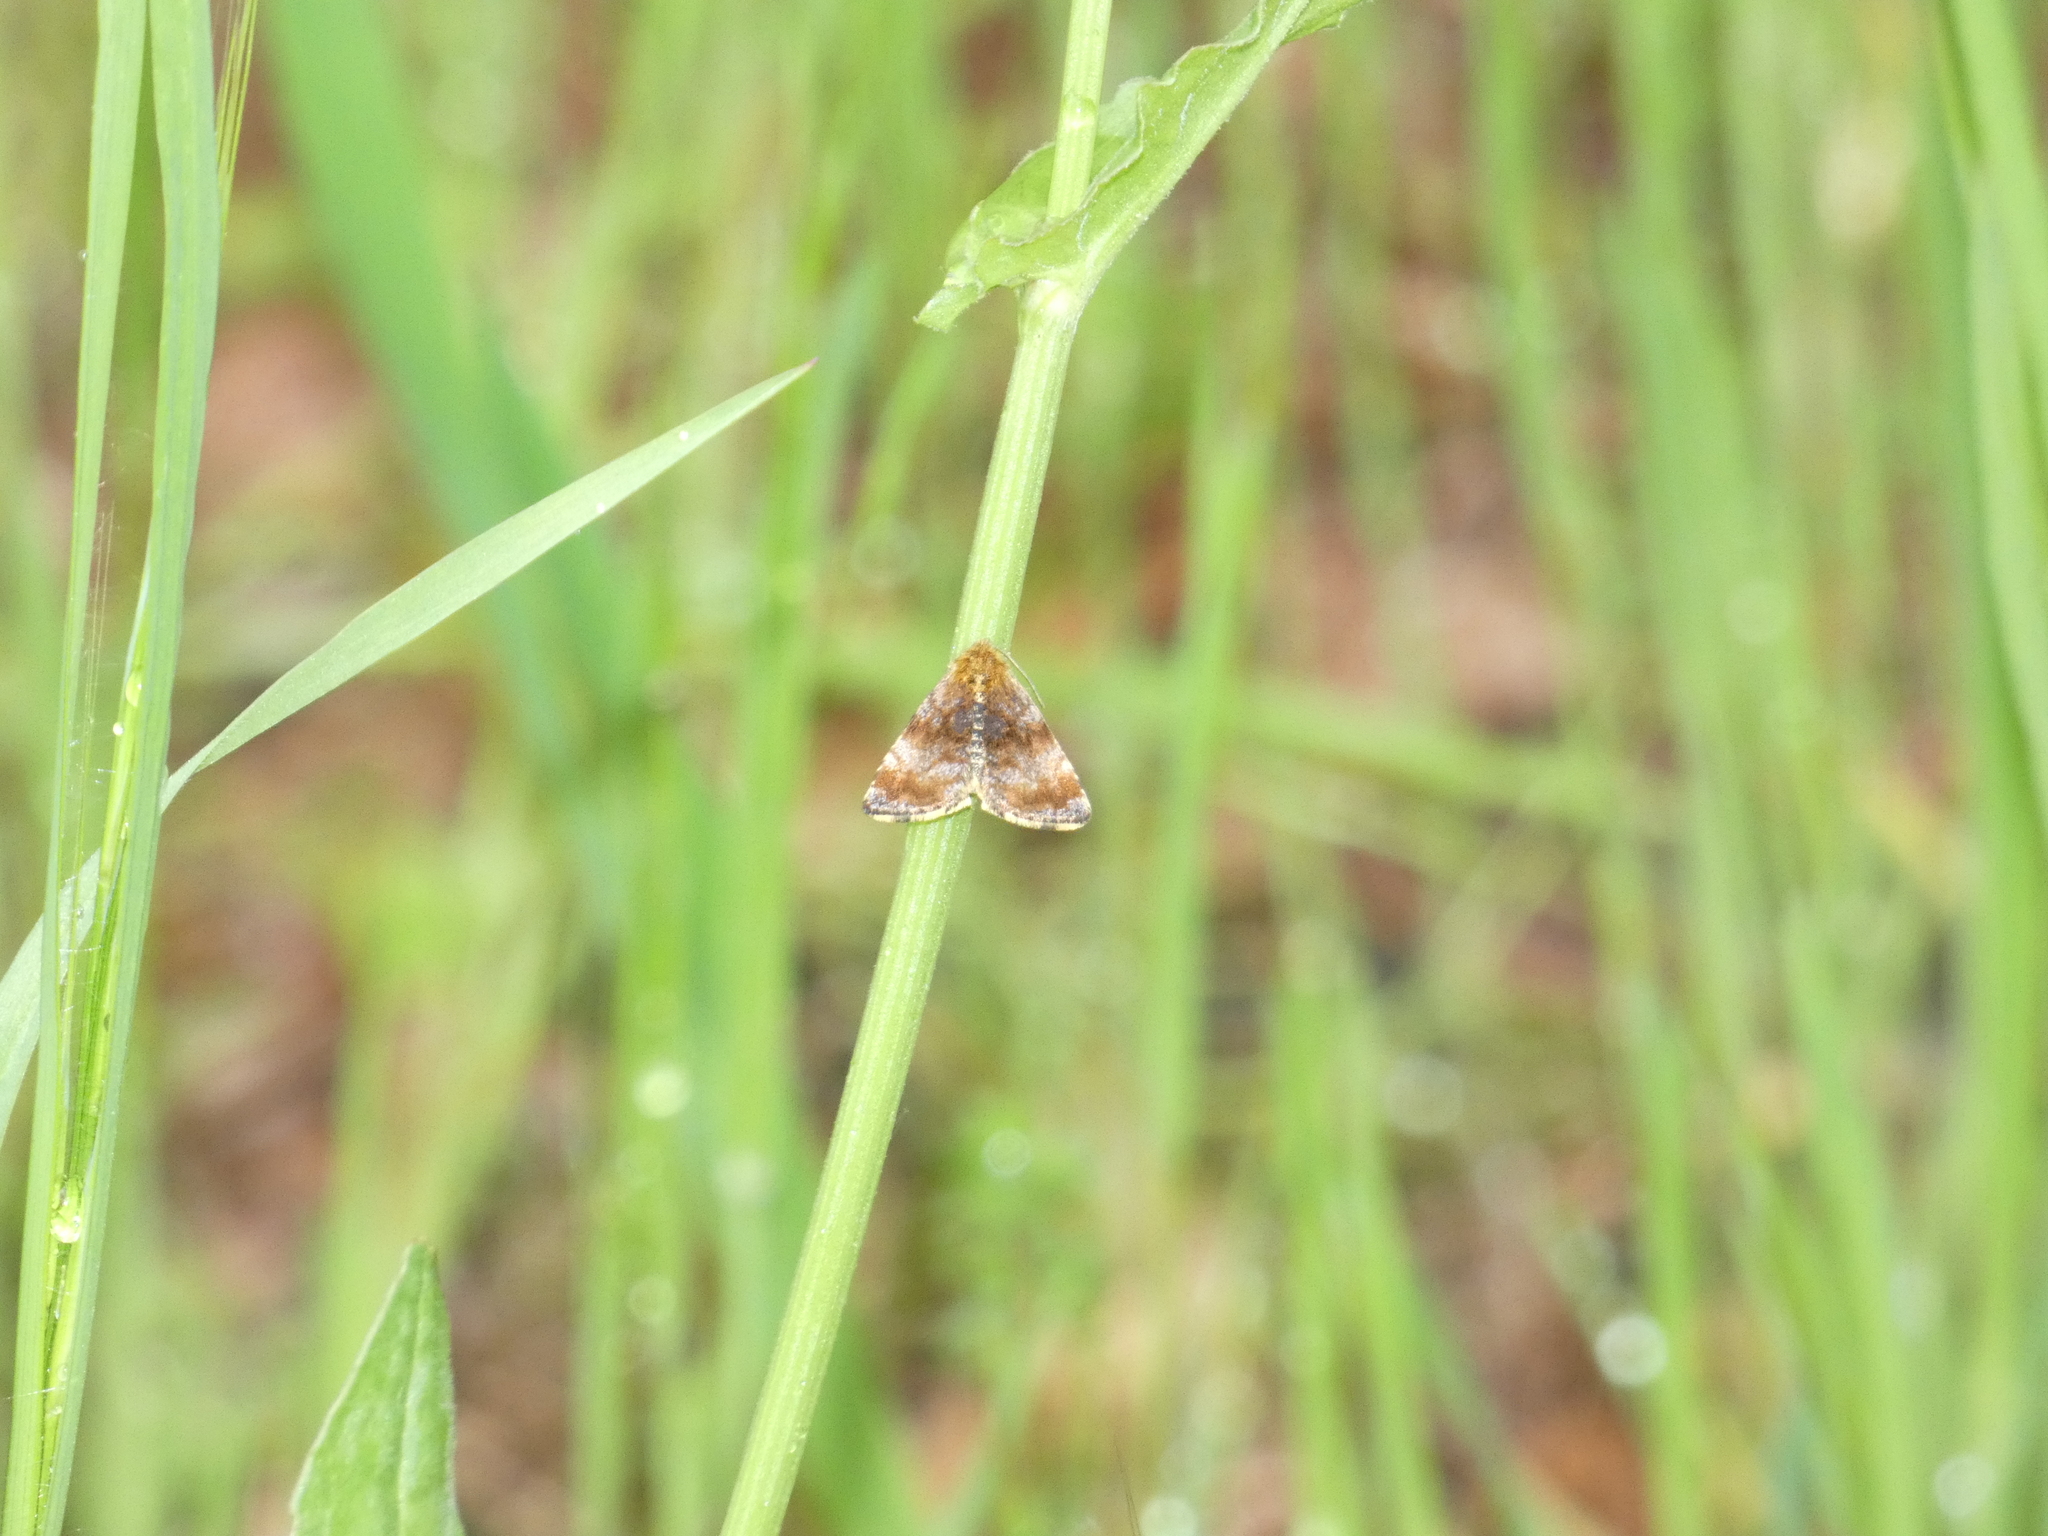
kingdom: Animalia
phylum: Arthropoda
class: Insecta
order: Lepidoptera
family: Noctuidae
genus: Panemeria
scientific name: Panemeria tenebrata
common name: Small yellow underwing
